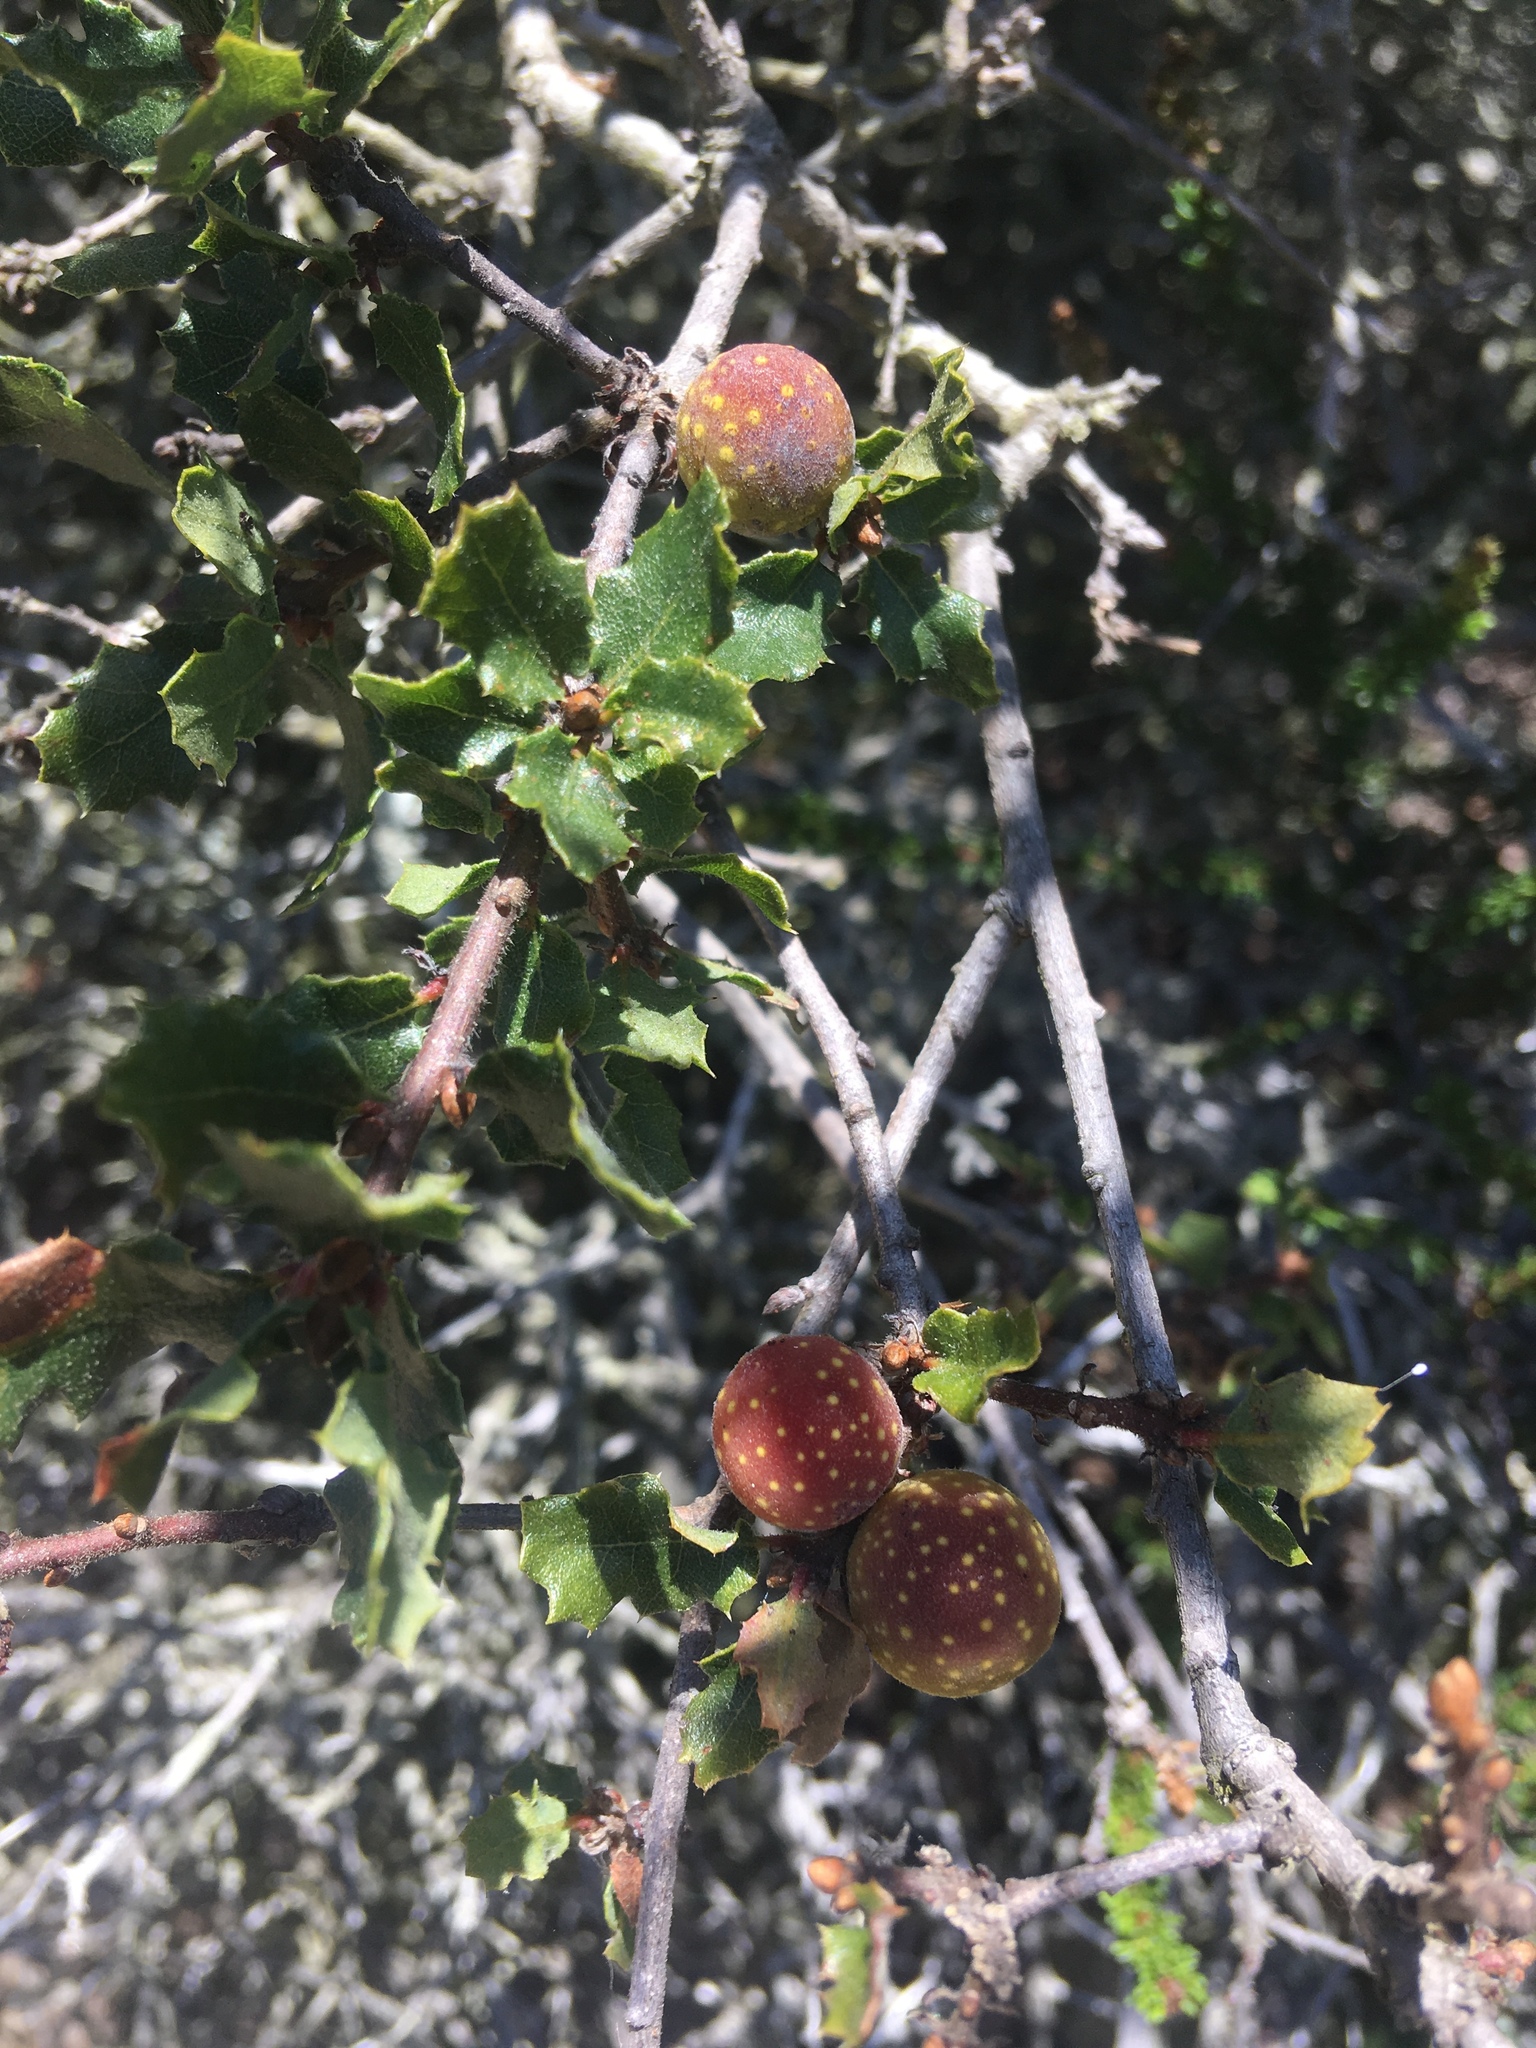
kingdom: Animalia
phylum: Arthropoda
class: Insecta
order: Hymenoptera
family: Cynipidae
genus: Burnettweldia
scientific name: Burnettweldia
